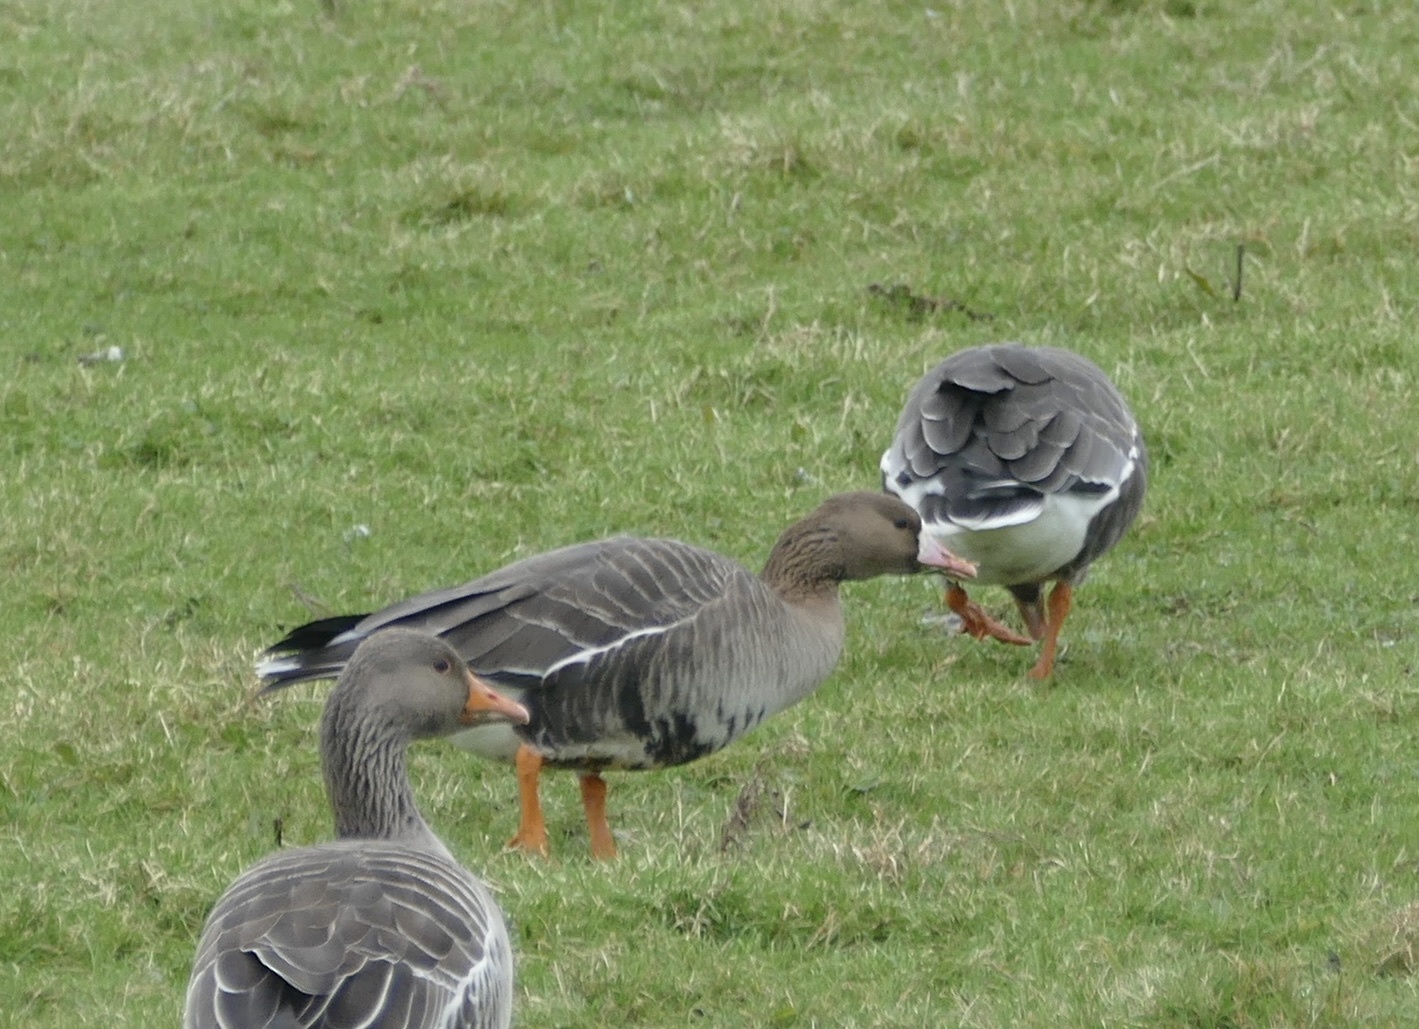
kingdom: Animalia
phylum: Chordata
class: Aves
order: Anseriformes
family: Anatidae
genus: Anser
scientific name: Anser albifrons
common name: Greater white-fronted goose
